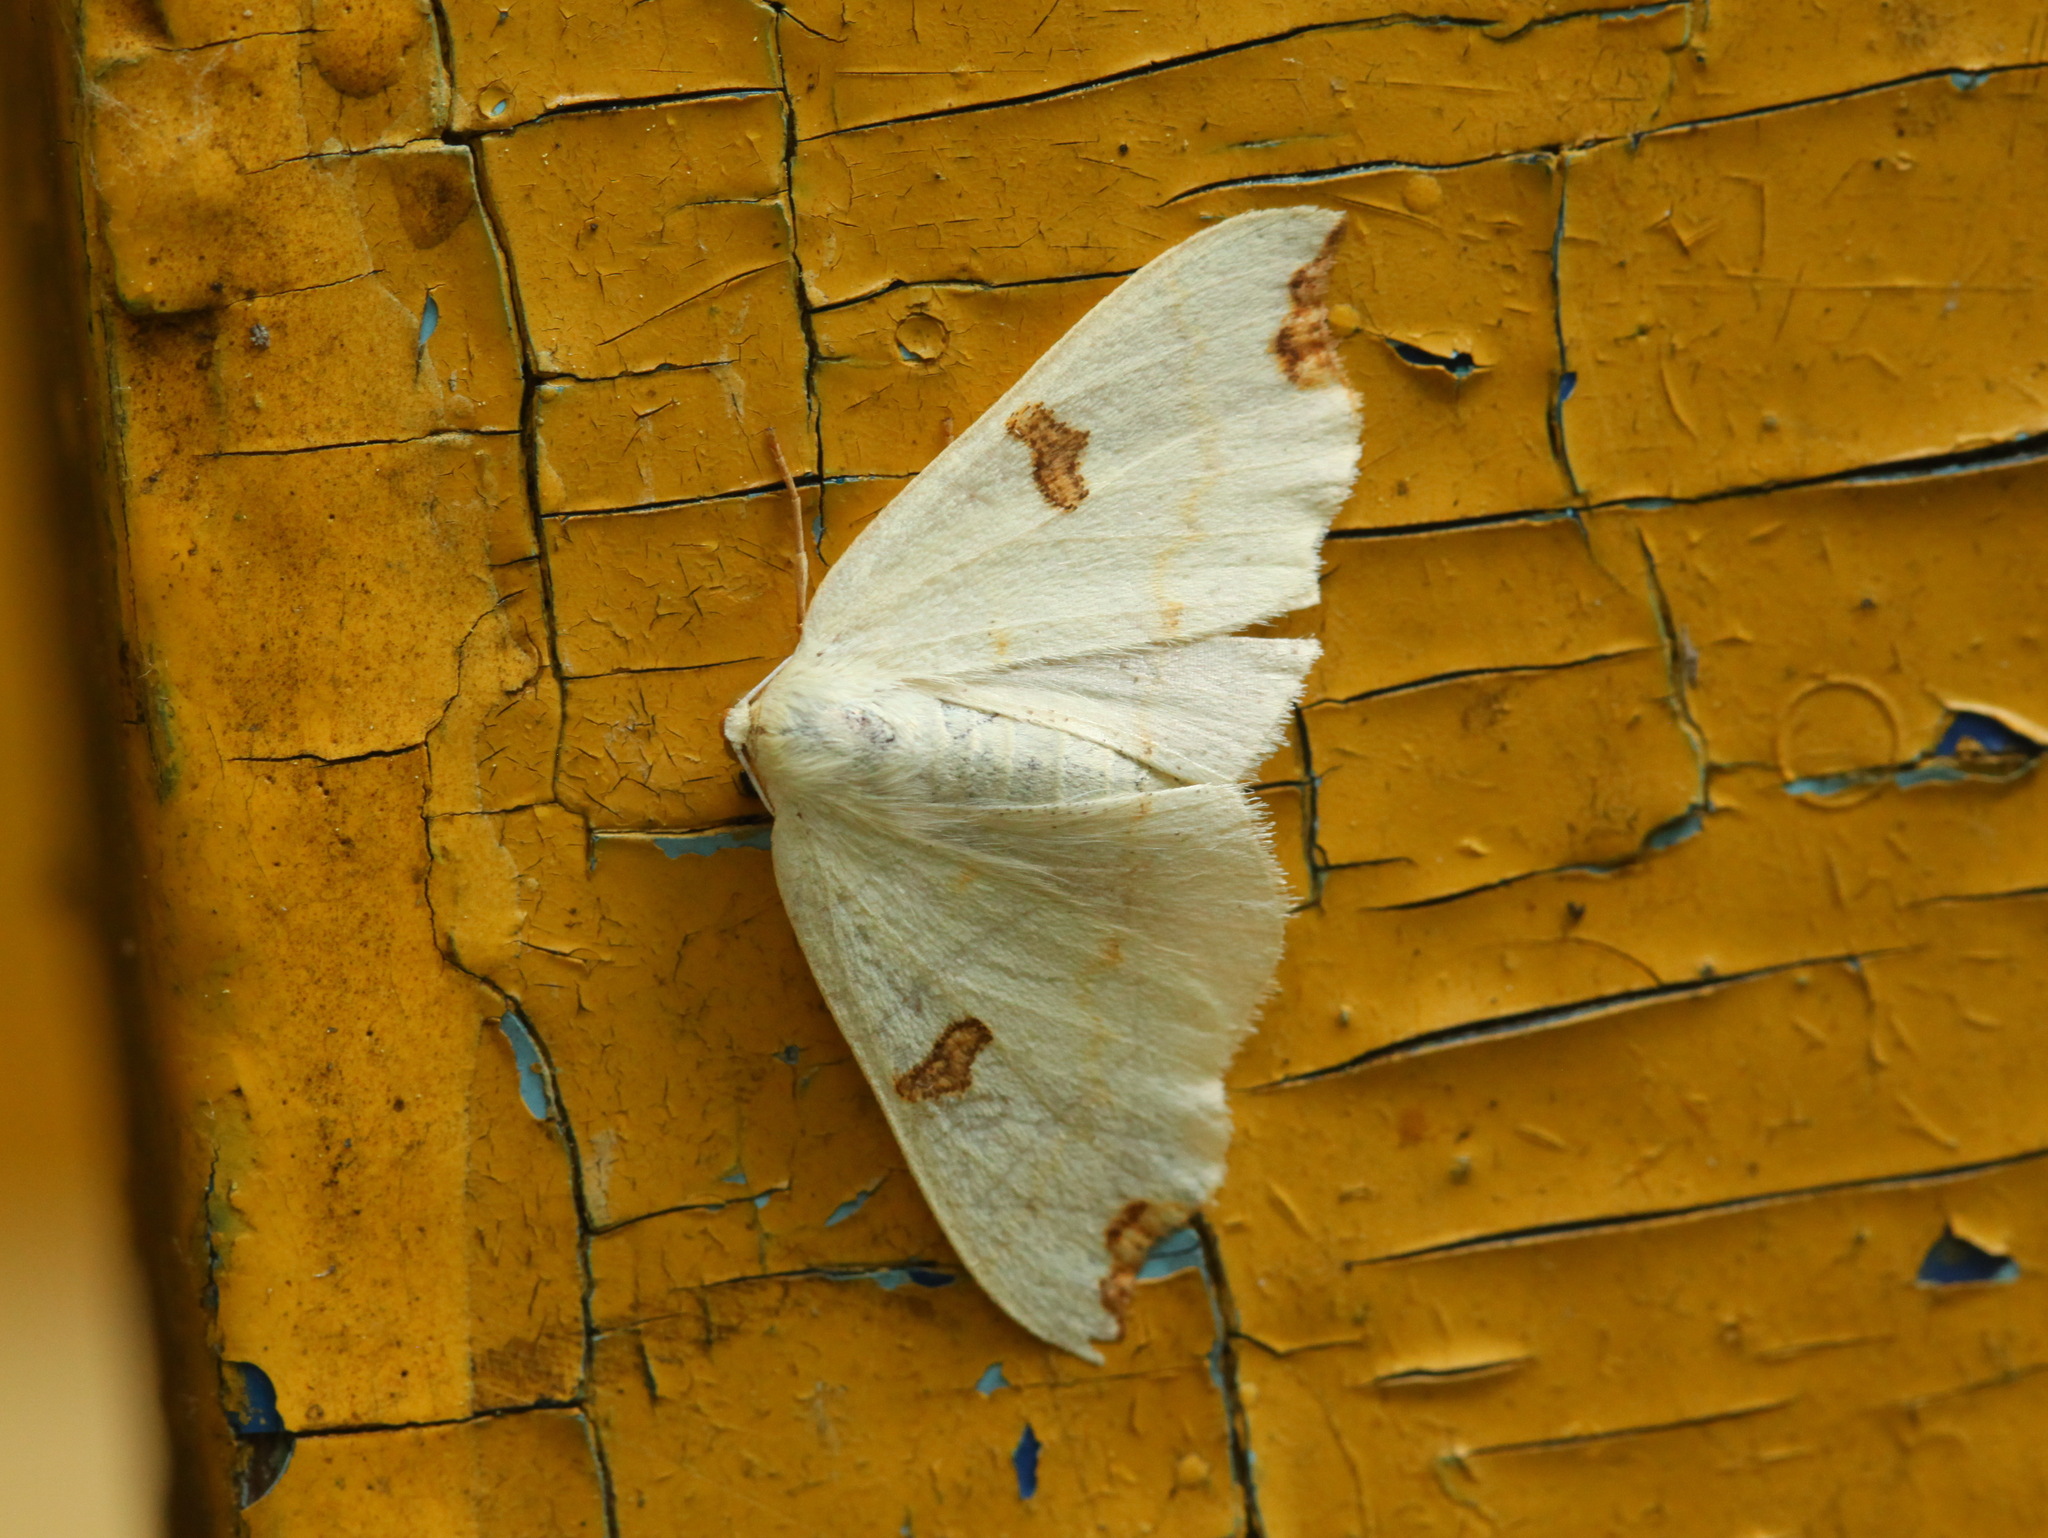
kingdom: Animalia
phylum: Arthropoda
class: Insecta
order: Lepidoptera
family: Geometridae
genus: Eilicrinia
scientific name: Eilicrinia wehrlii
